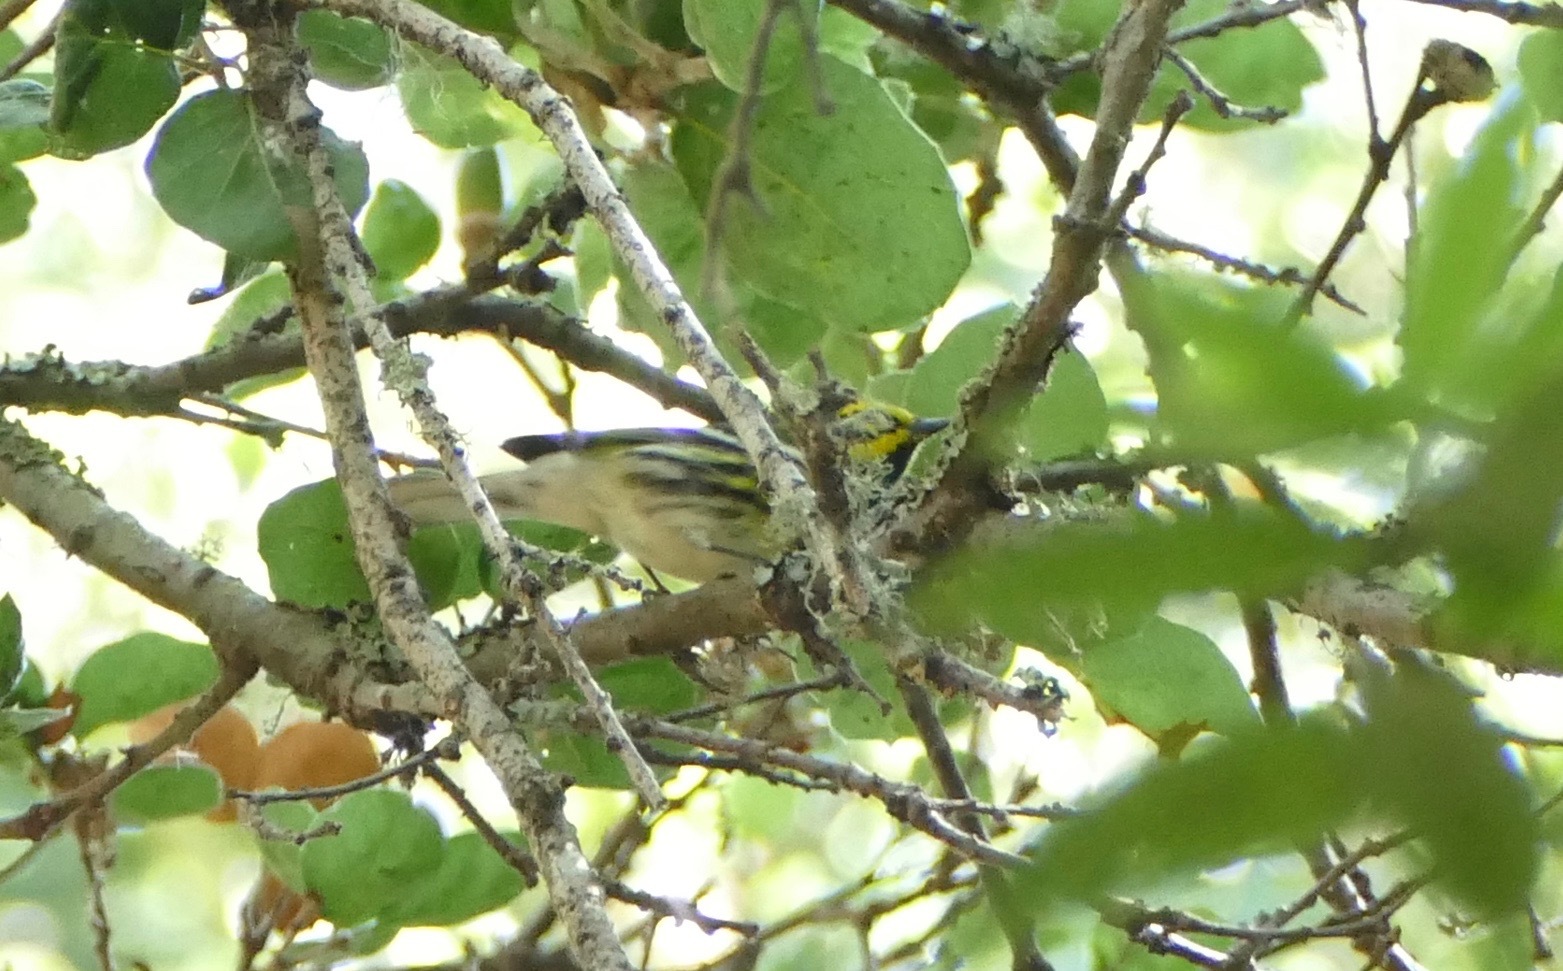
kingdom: Animalia
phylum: Chordata
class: Aves
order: Passeriformes
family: Parulidae
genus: Setophaga
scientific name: Setophaga townsendi
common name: Townsend's warbler
